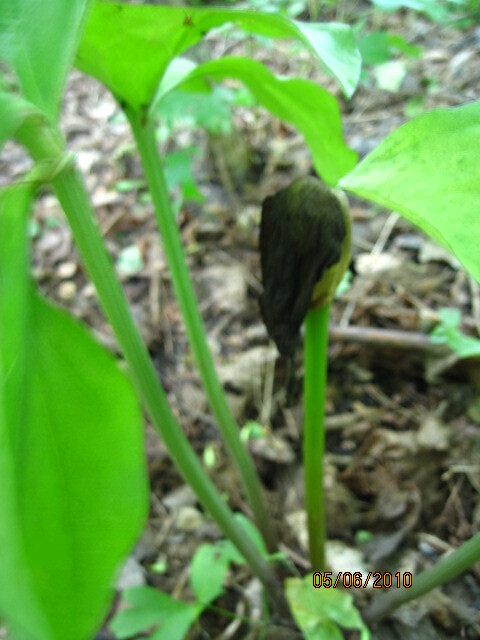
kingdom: Plantae
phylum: Tracheophyta
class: Liliopsida
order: Alismatales
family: Araceae
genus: Arum
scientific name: Arum orientale
